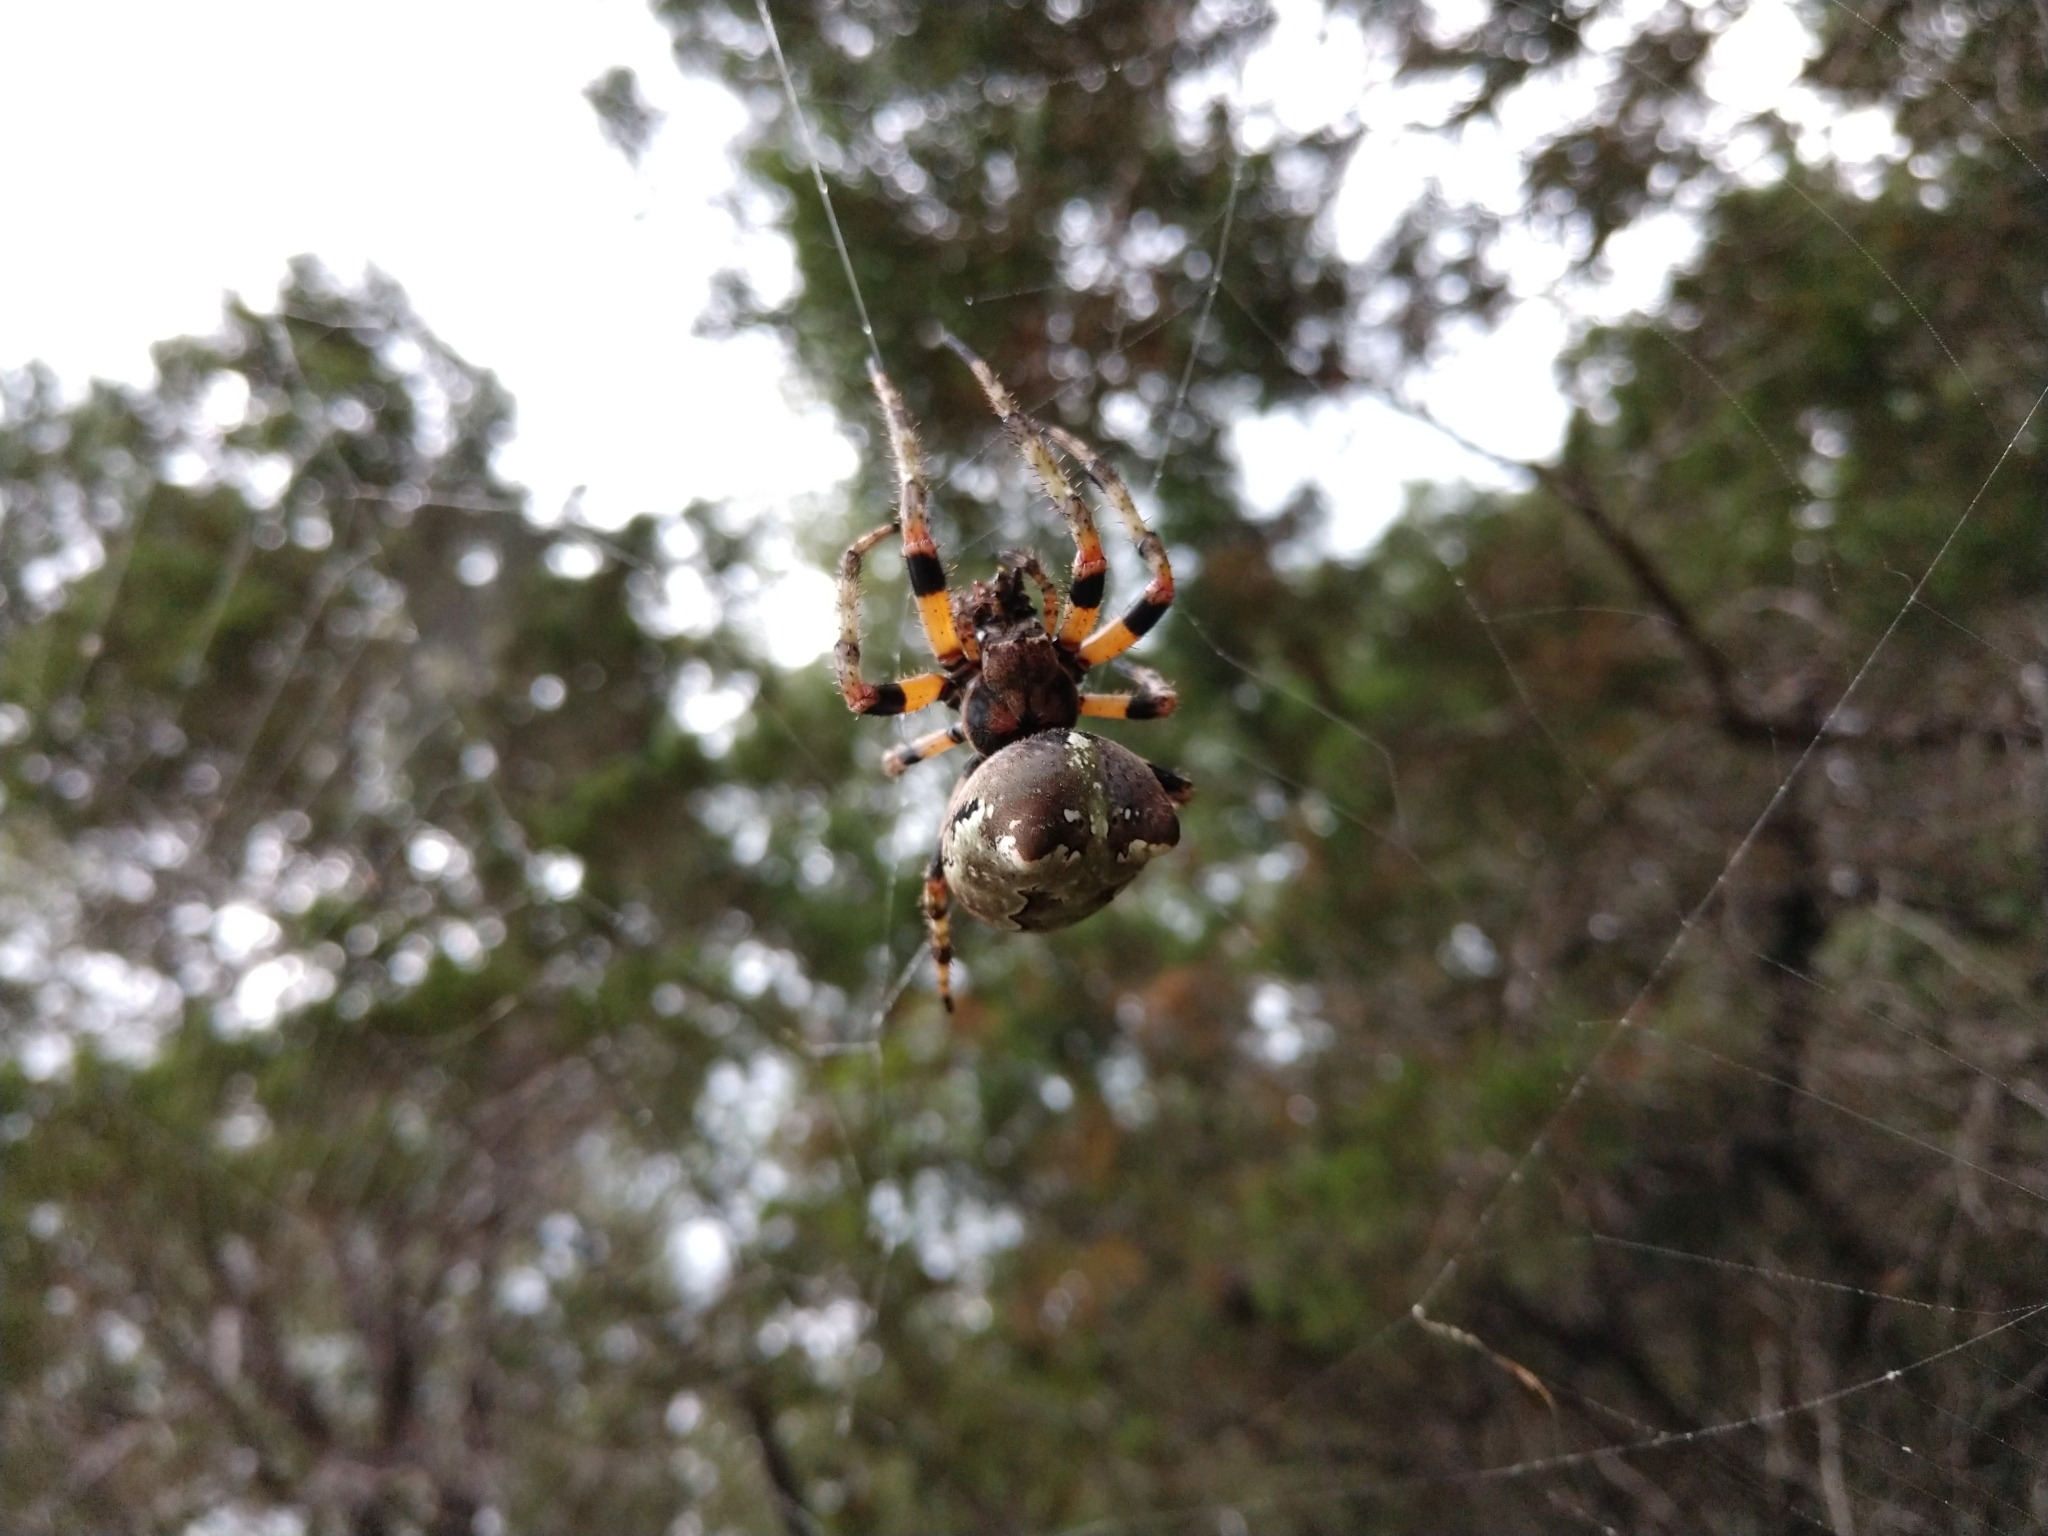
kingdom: Animalia
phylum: Arthropoda
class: Arachnida
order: Araneae
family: Araneidae
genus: Araneus
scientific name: Araneus bicentenarius
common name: Giant lichen orbweaver
